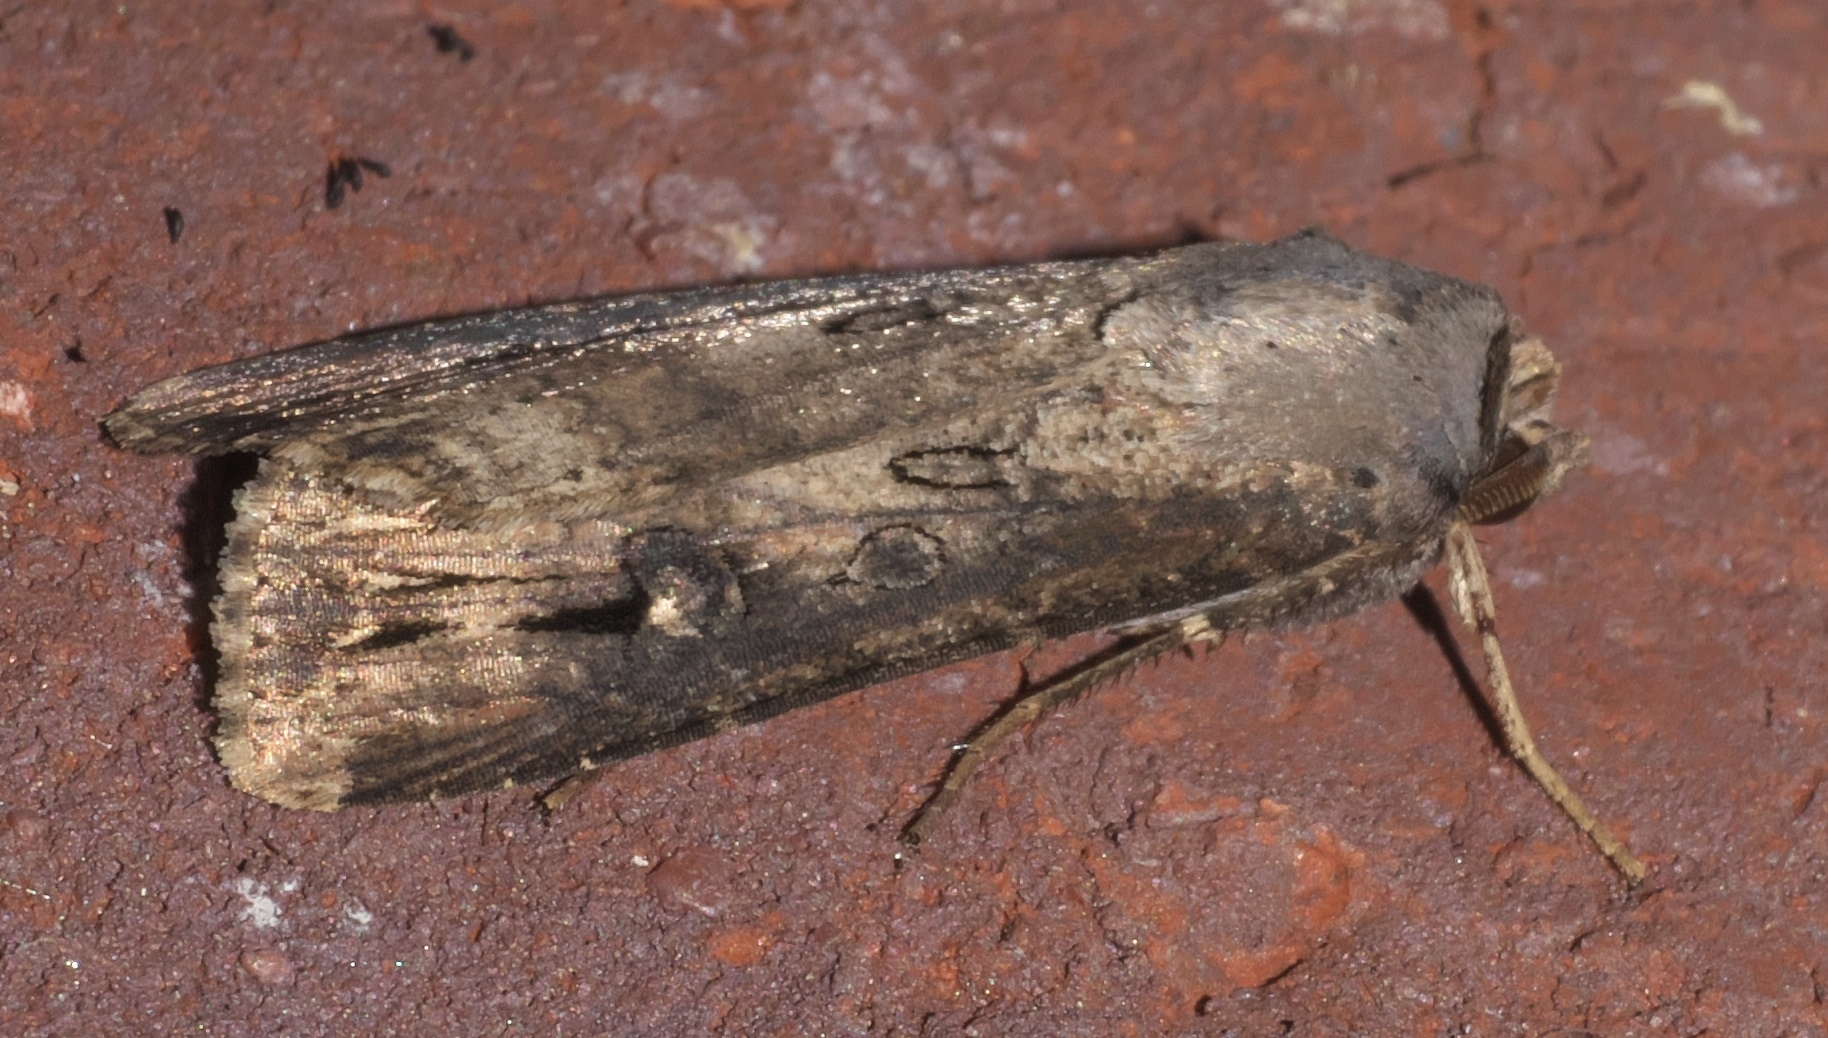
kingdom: Animalia
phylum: Arthropoda
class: Insecta
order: Lepidoptera
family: Noctuidae
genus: Agrotis
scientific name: Agrotis ipsilon
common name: Dark sword-grass
